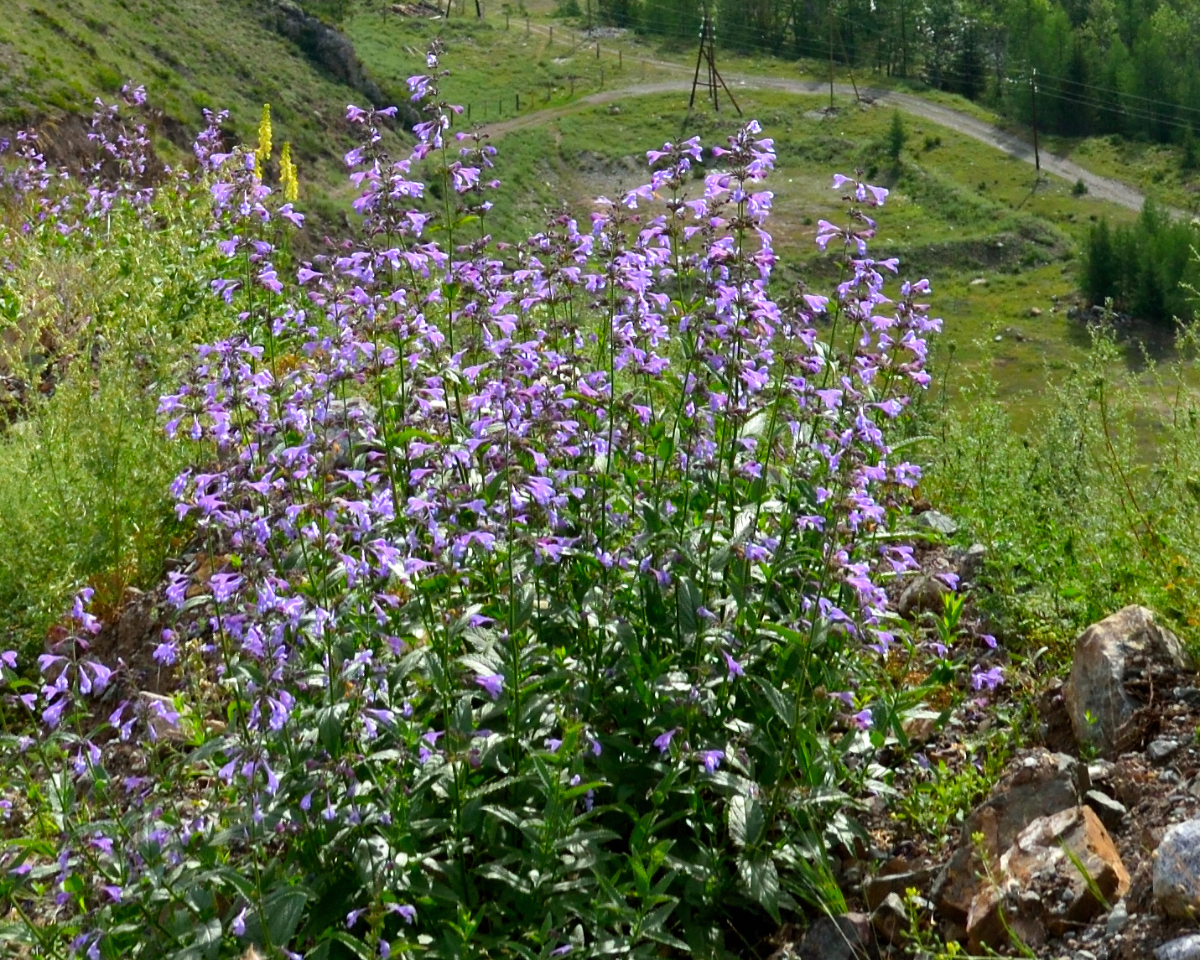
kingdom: Plantae
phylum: Tracheophyta
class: Magnoliopsida
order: Lamiales
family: Lamiaceae
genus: Nepeta
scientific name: Nepeta sibirica
